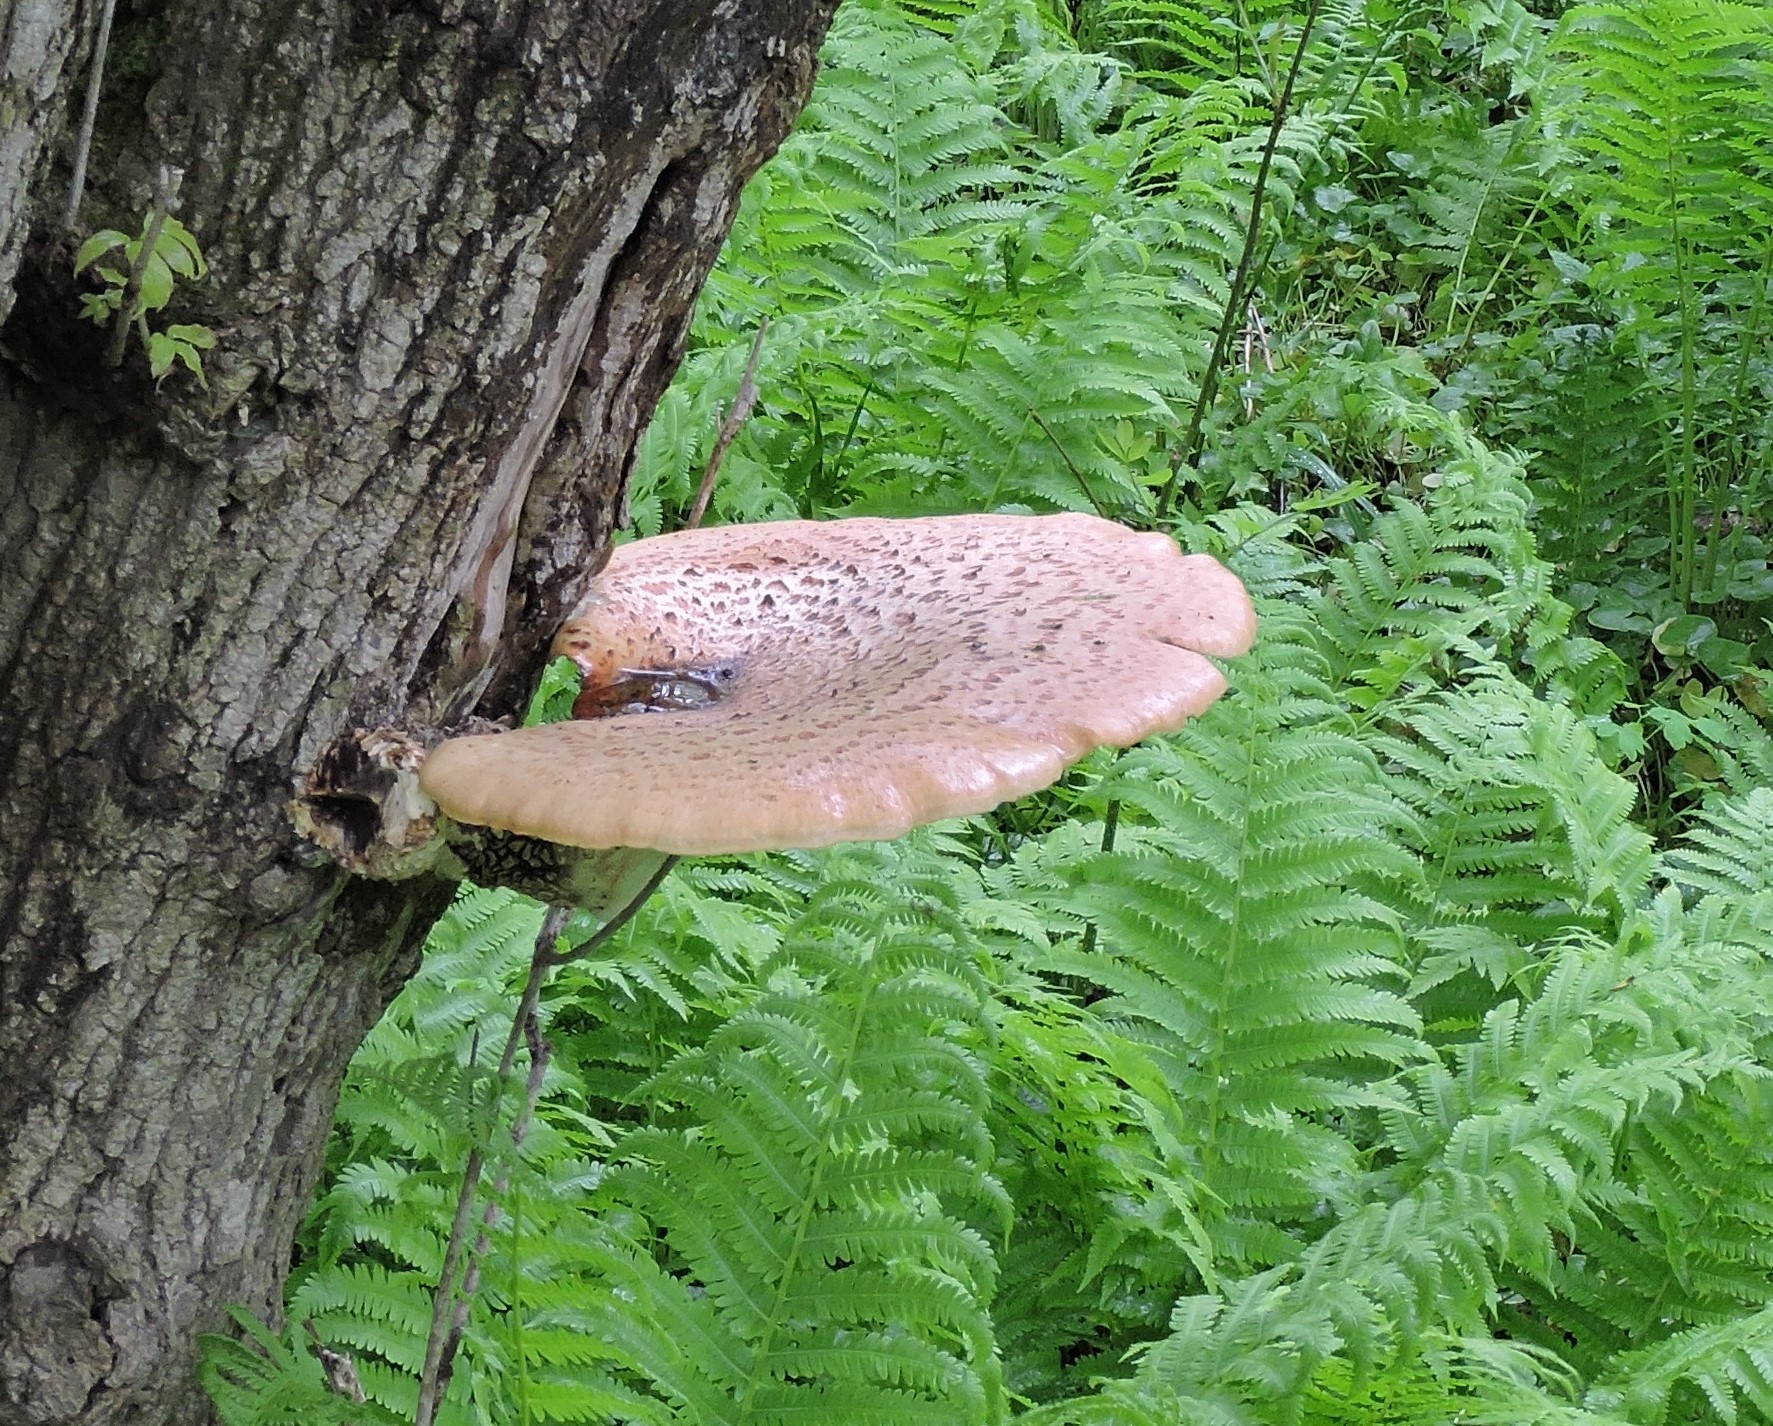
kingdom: Fungi
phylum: Basidiomycota
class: Agaricomycetes
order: Polyporales
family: Polyporaceae
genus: Cerioporus
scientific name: Cerioporus squamosus
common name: Dryad's saddle
